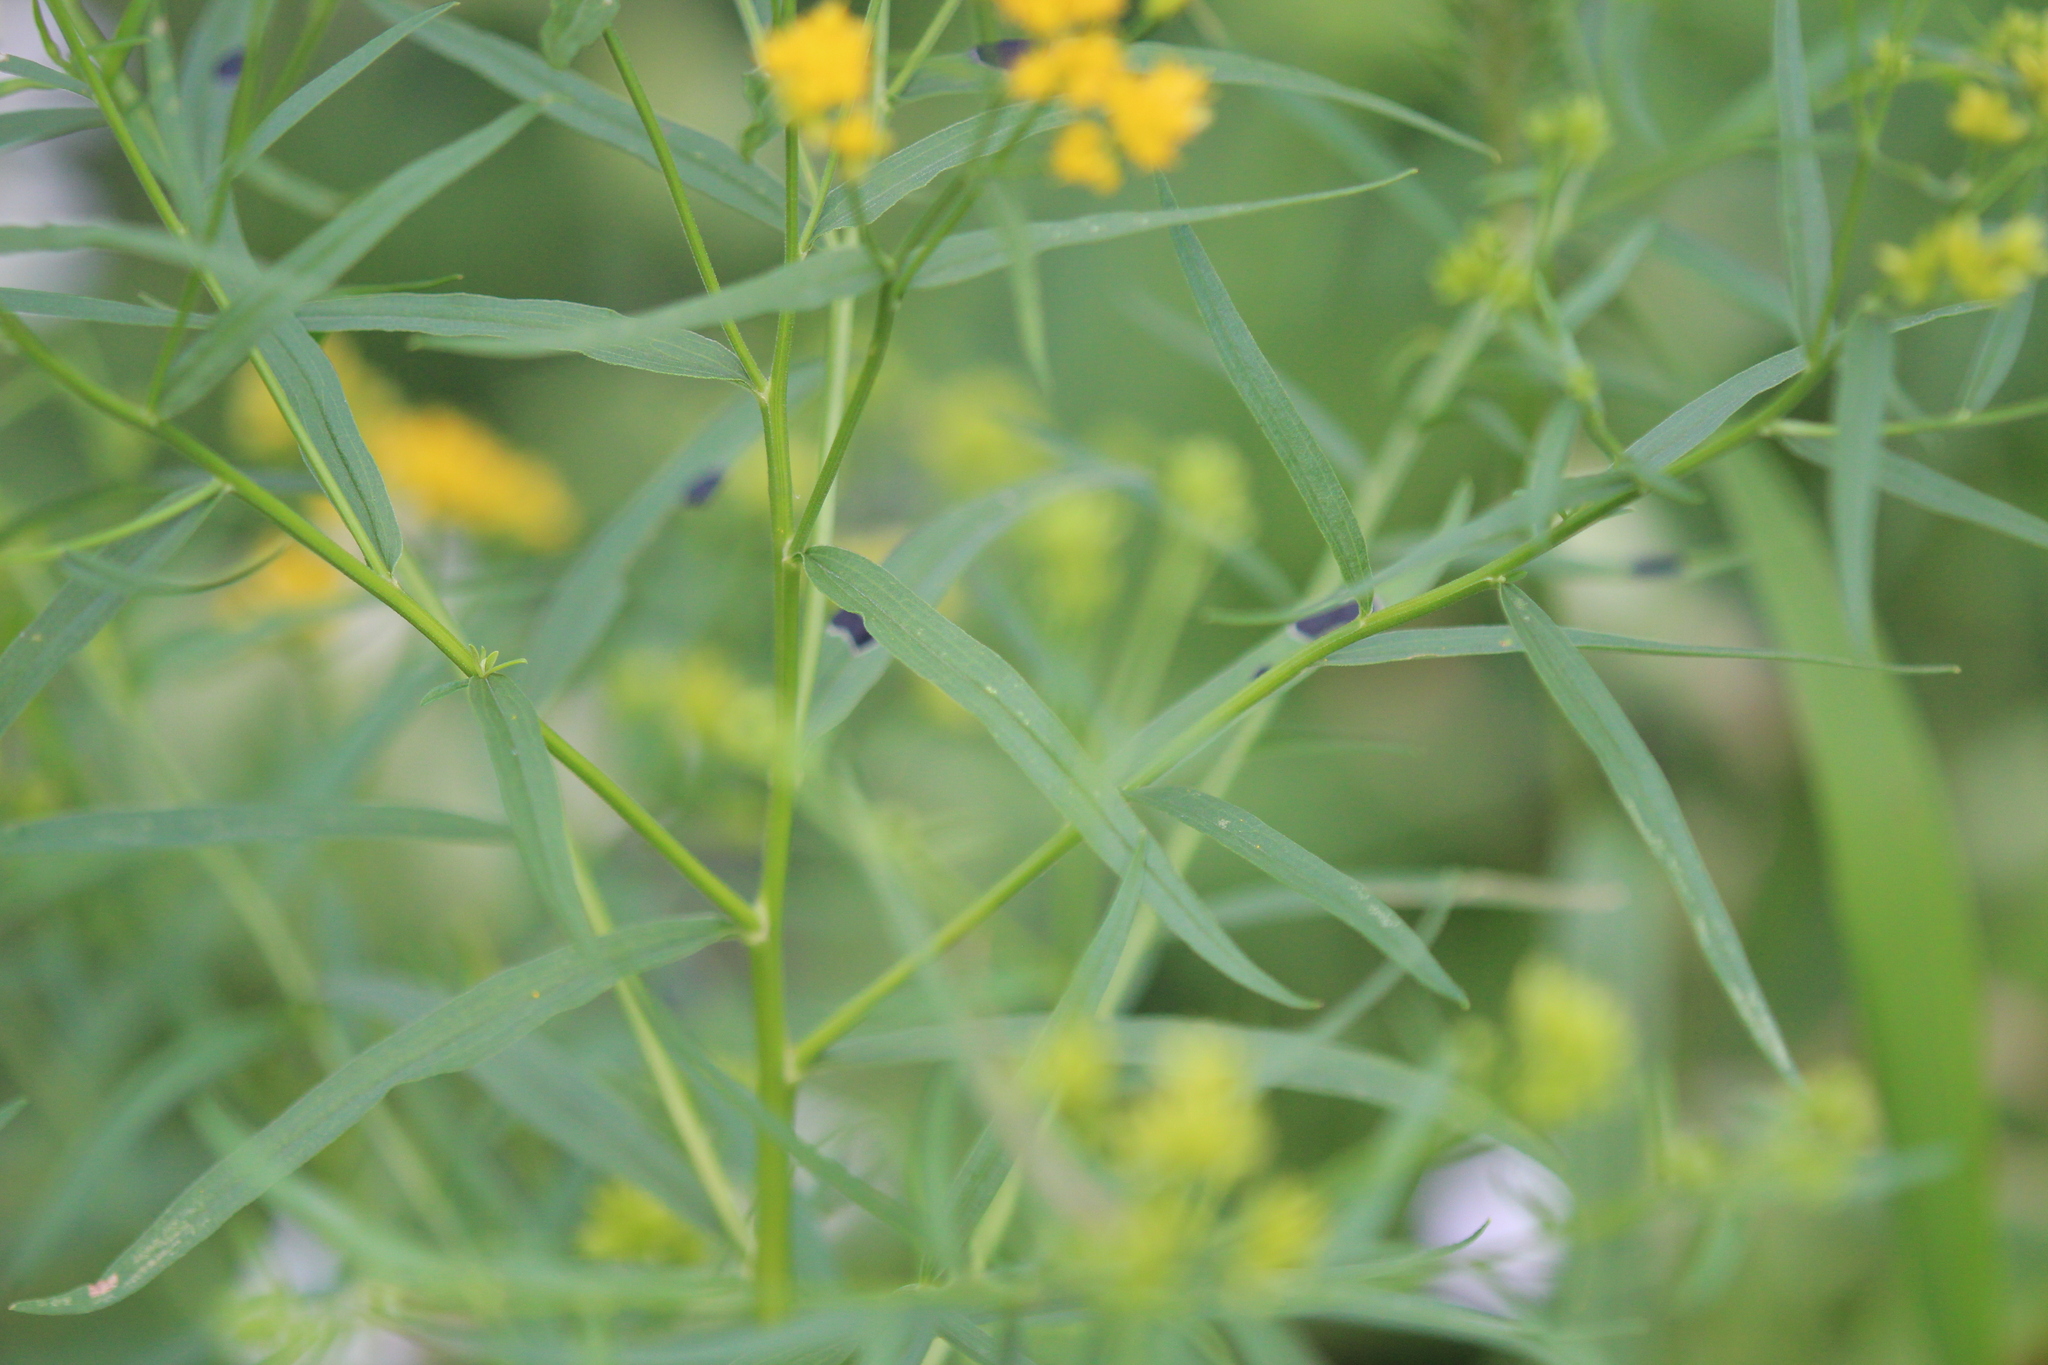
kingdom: Plantae
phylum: Tracheophyta
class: Magnoliopsida
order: Asterales
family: Asteraceae
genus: Euthamia
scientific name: Euthamia graminifolia
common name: Common goldentop
